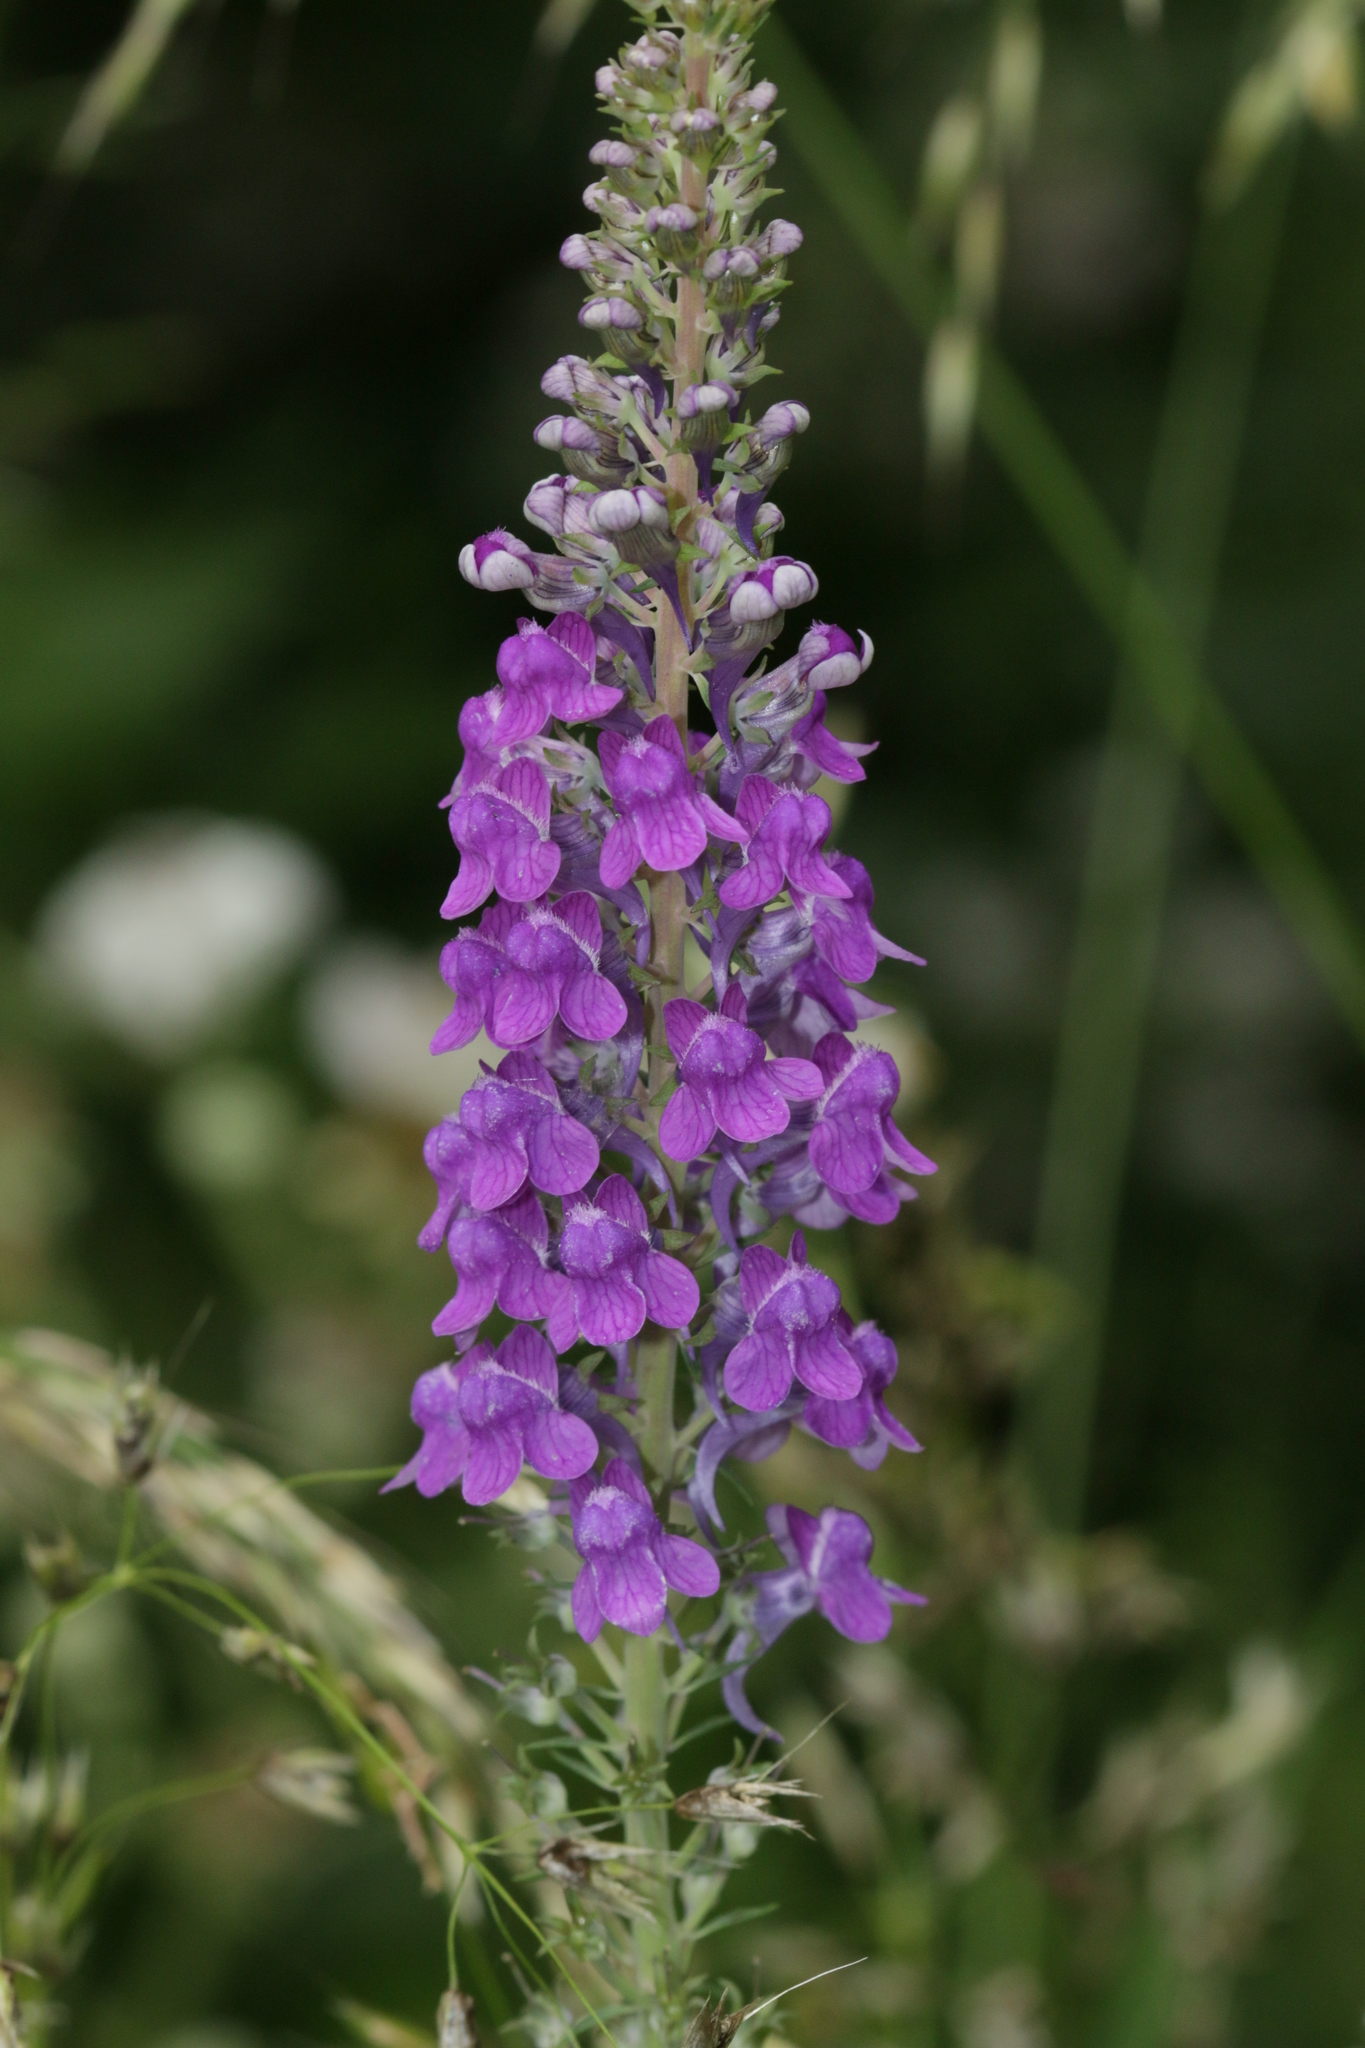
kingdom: Plantae
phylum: Tracheophyta
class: Magnoliopsida
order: Lamiales
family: Plantaginaceae
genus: Linaria
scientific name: Linaria purpurea
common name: Purple toadflax
